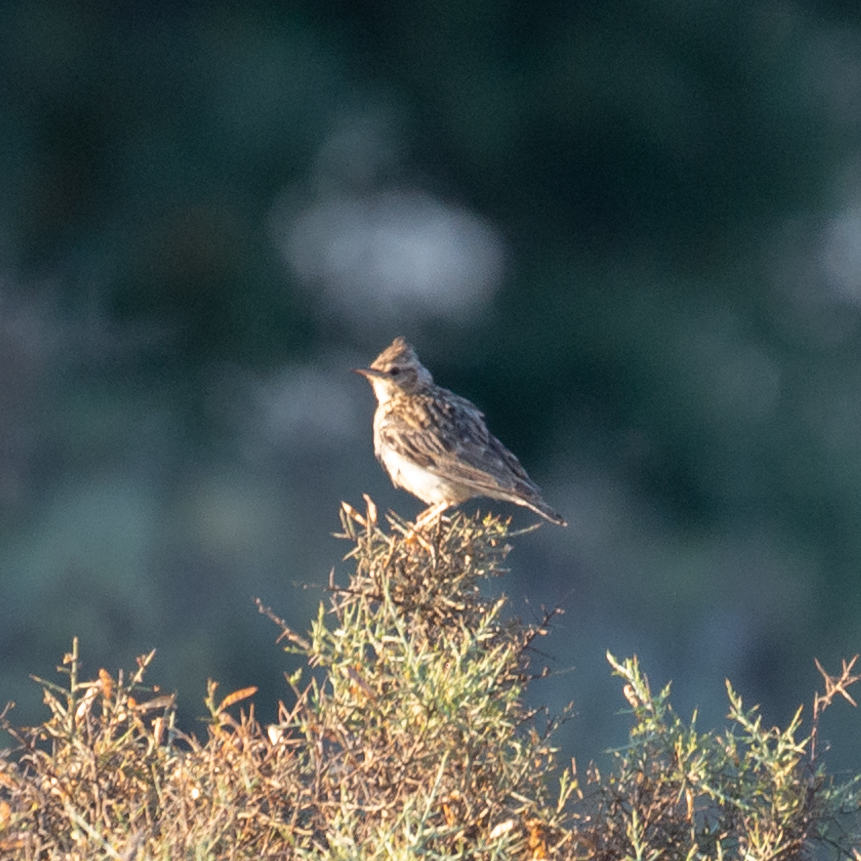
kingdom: Animalia
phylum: Chordata
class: Aves
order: Passeriformes
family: Alaudidae
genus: Lullula
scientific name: Lullula arborea
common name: Woodlark
